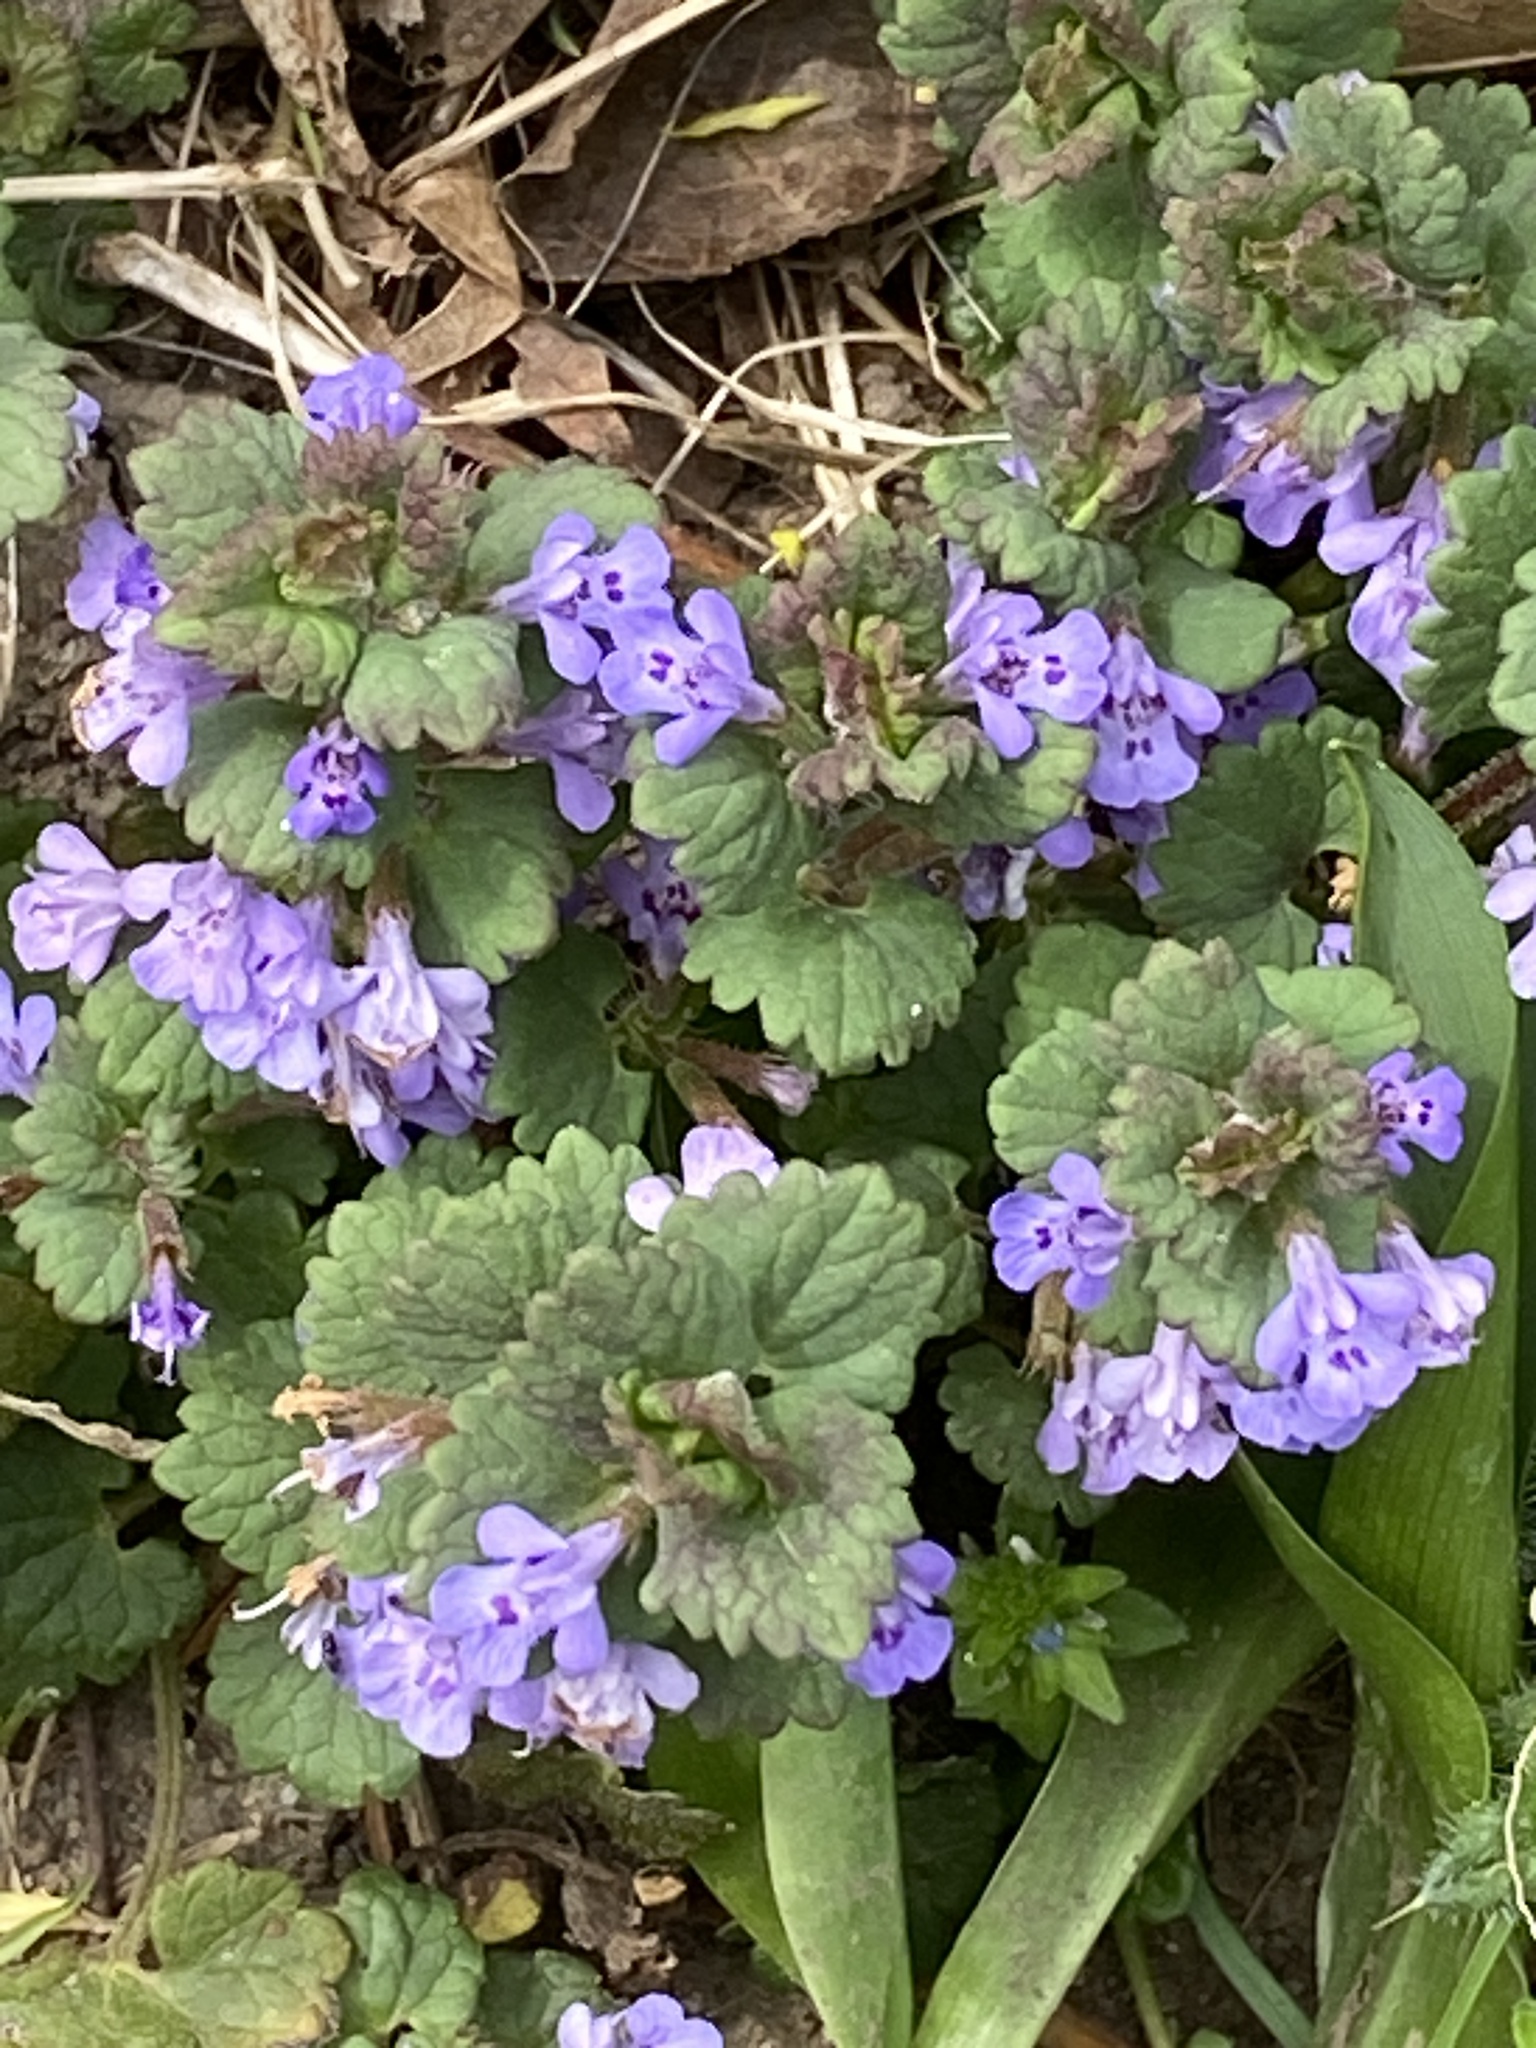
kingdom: Plantae
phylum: Tracheophyta
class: Magnoliopsida
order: Lamiales
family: Lamiaceae
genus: Glechoma
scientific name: Glechoma hederacea
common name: Ground ivy
